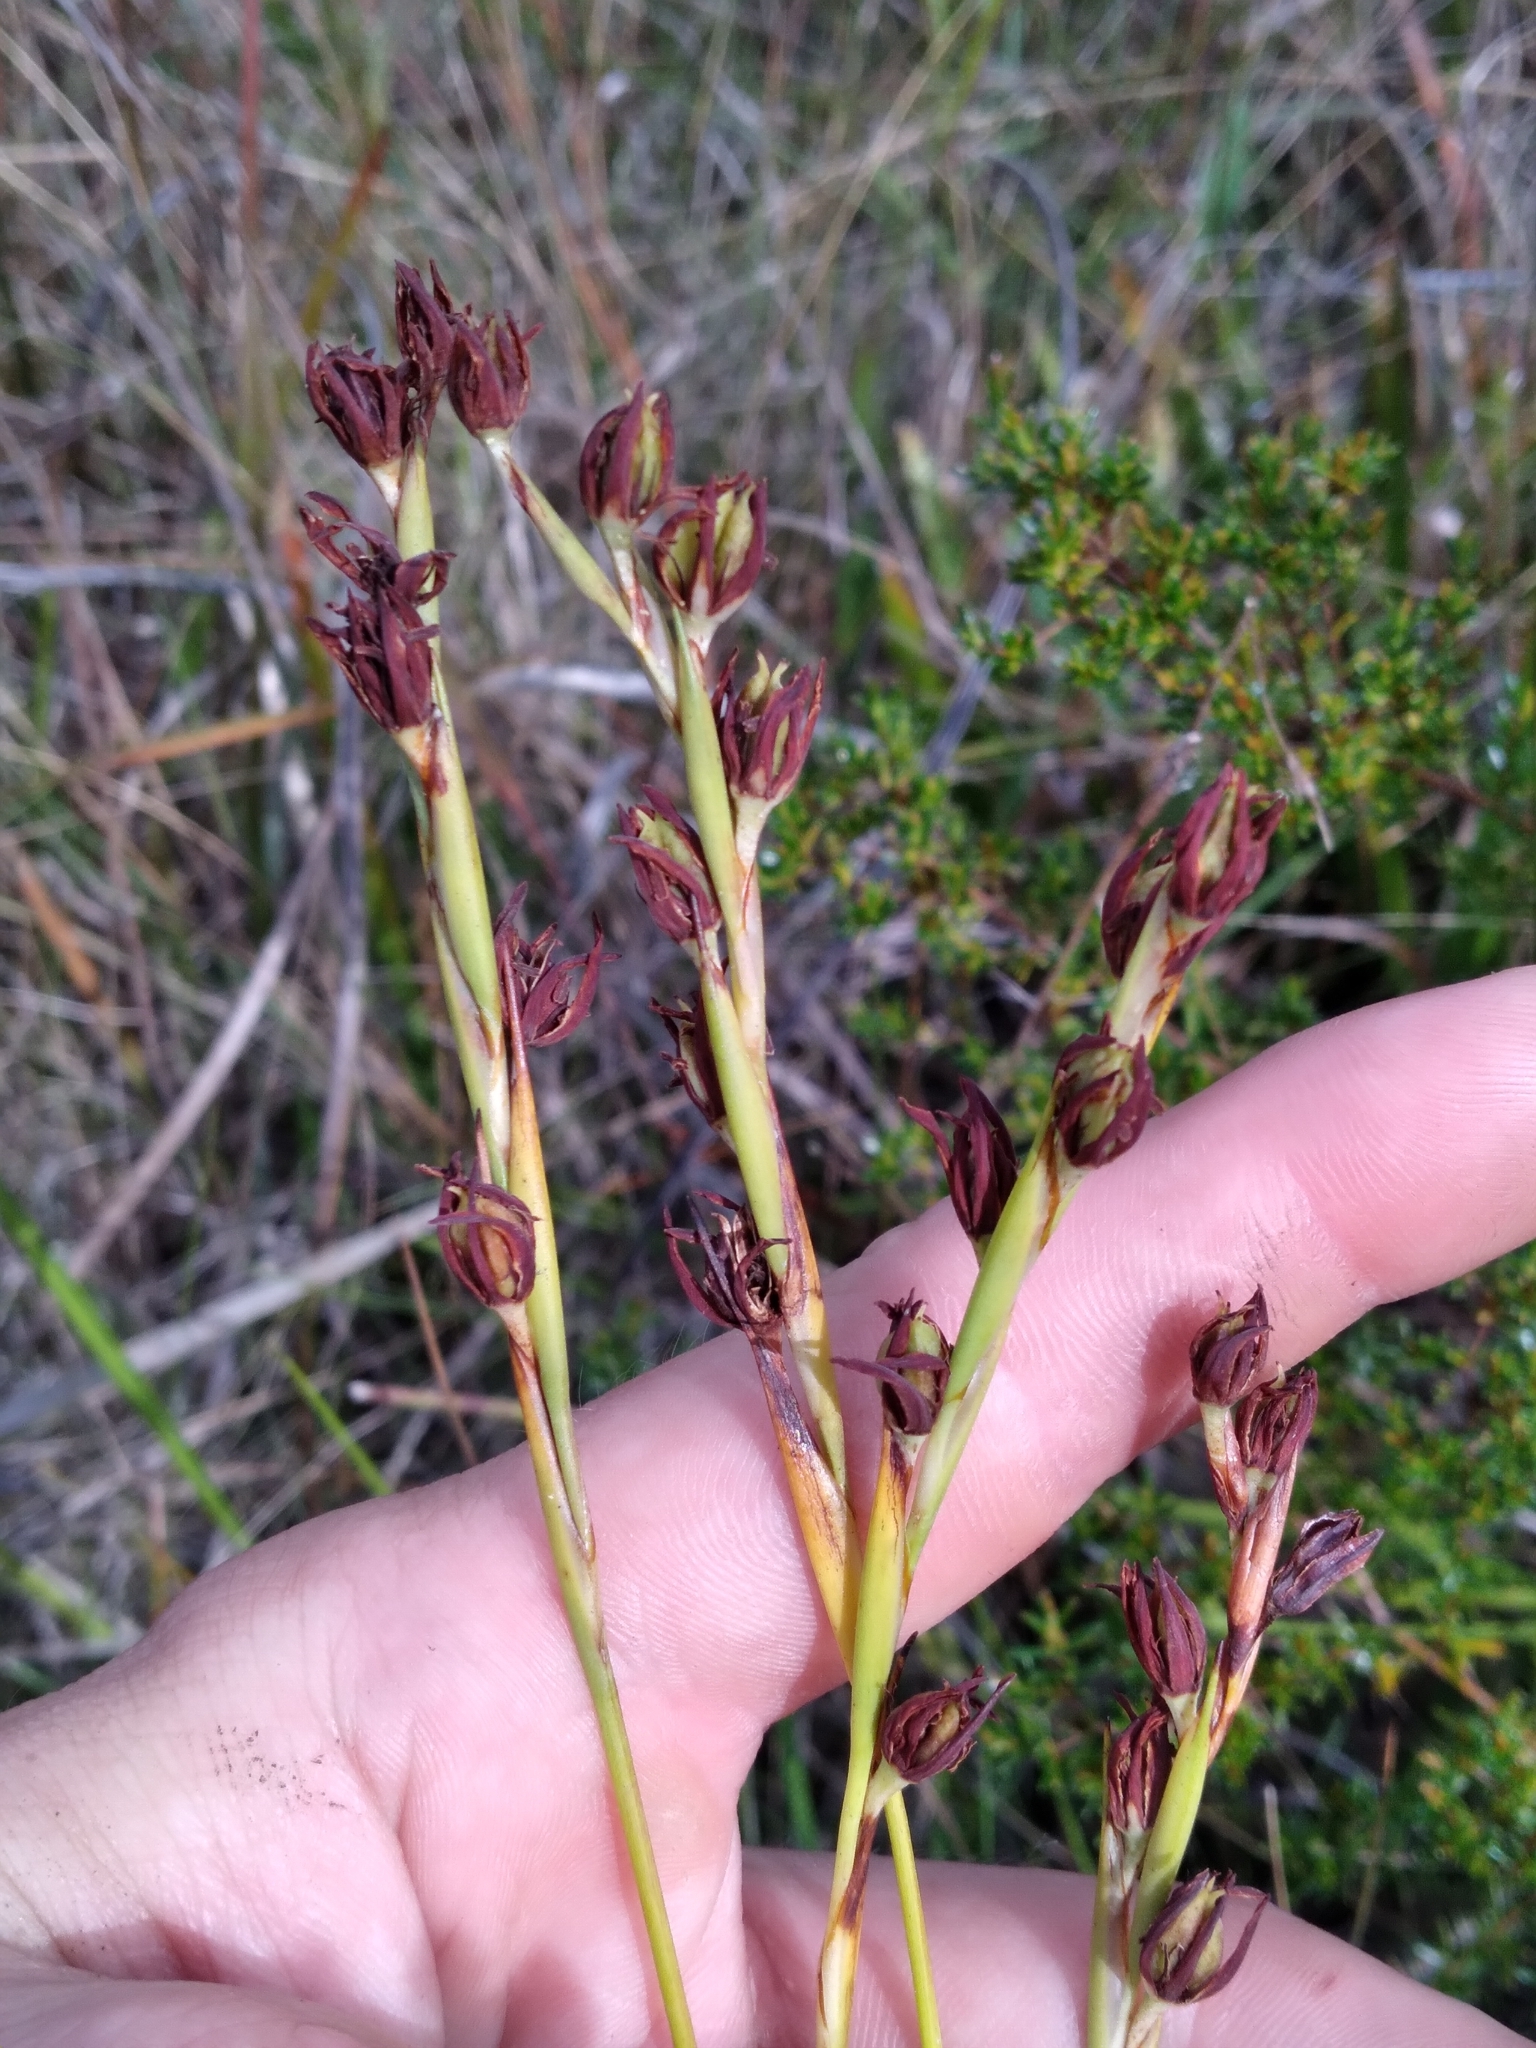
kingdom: Plantae
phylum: Tracheophyta
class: Liliopsida
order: Alismatales
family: Tofieldiaceae
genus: Pleea
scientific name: Pleea tenuifolia
